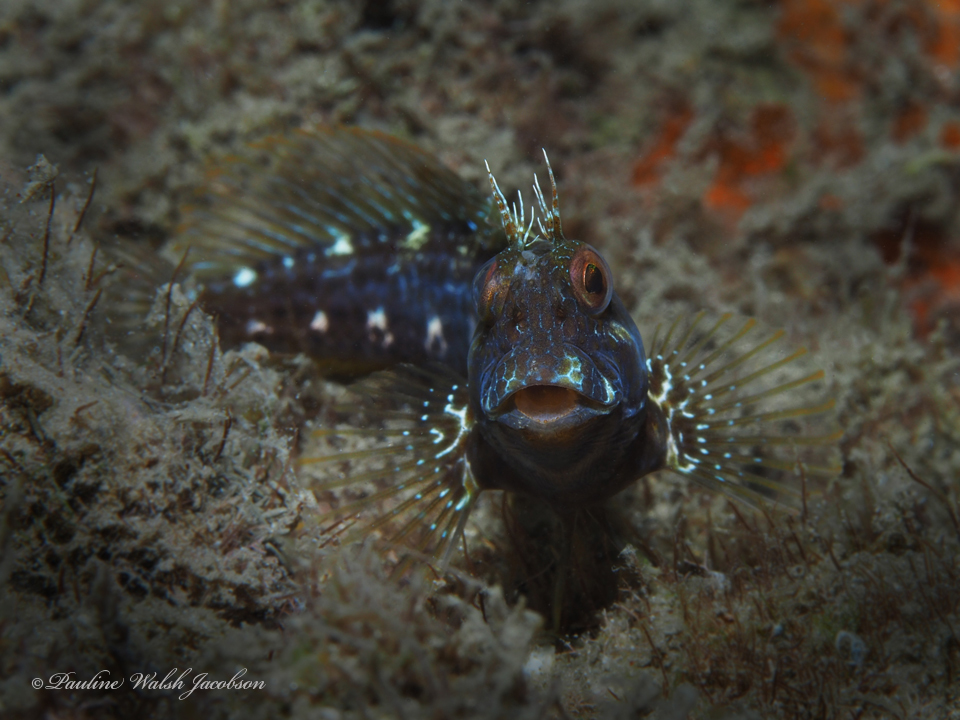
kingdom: Animalia
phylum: Chordata
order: Perciformes
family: Blenniidae
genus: Parablennius
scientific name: Parablennius marmoreus
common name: Seaweed blenny
